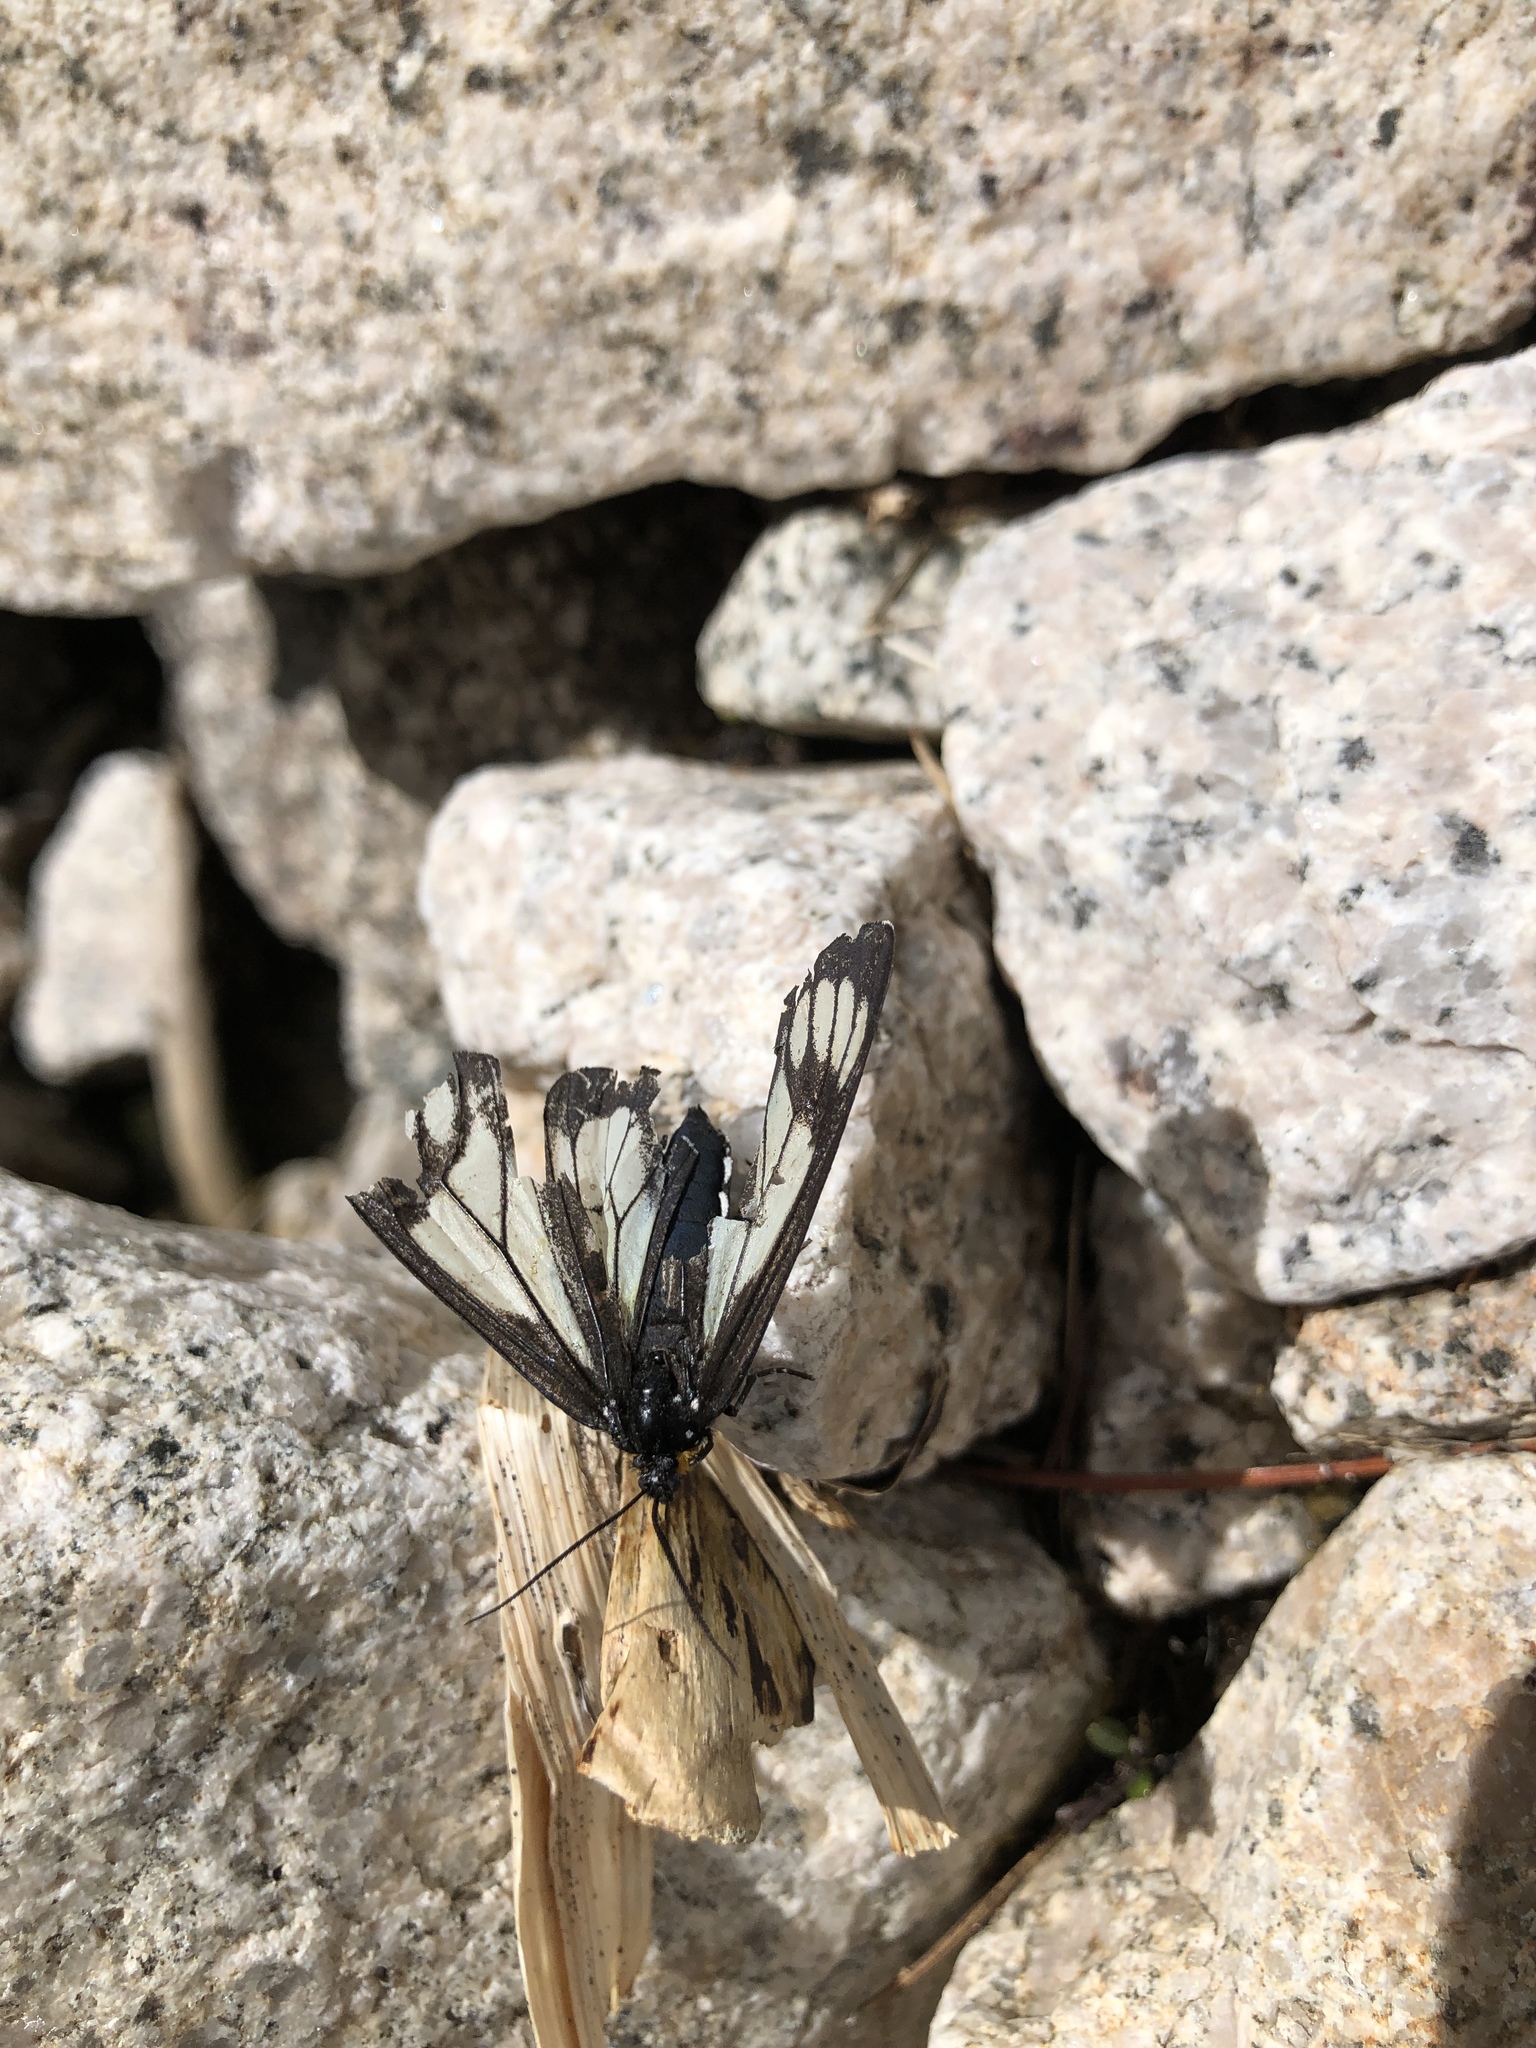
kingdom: Animalia
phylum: Arthropoda
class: Insecta
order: Lepidoptera
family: Erebidae
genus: Gnophaela
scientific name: Gnophaela vermiculata
